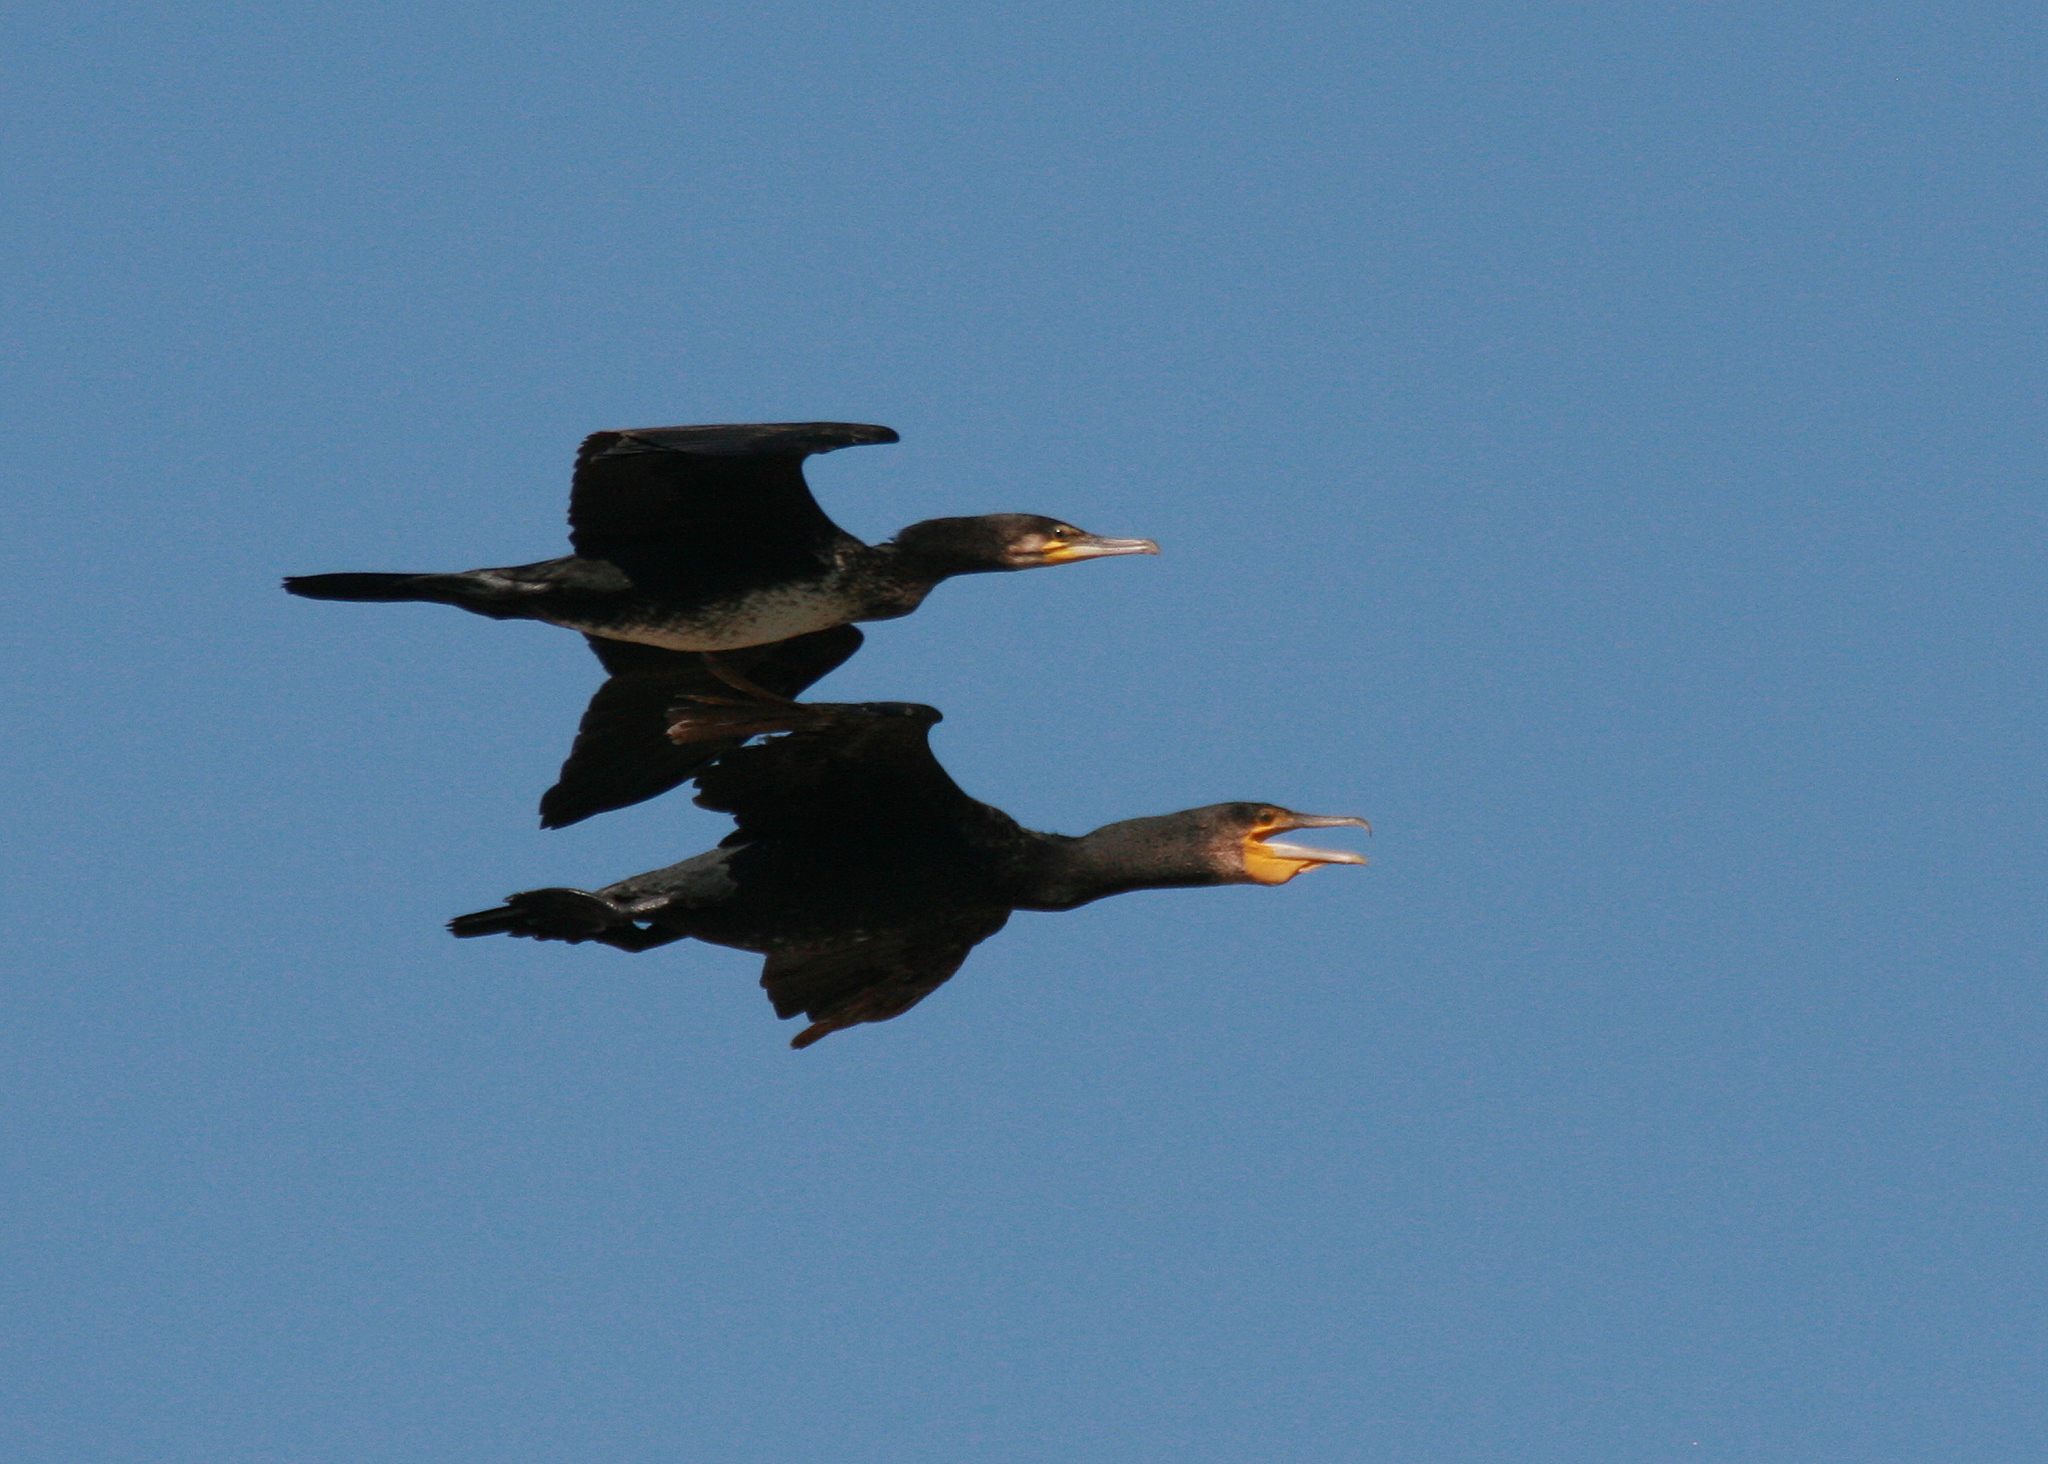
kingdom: Animalia
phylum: Chordata
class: Aves
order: Suliformes
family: Phalacrocoracidae
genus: Phalacrocorax
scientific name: Phalacrocorax carbo
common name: Great cormorant
